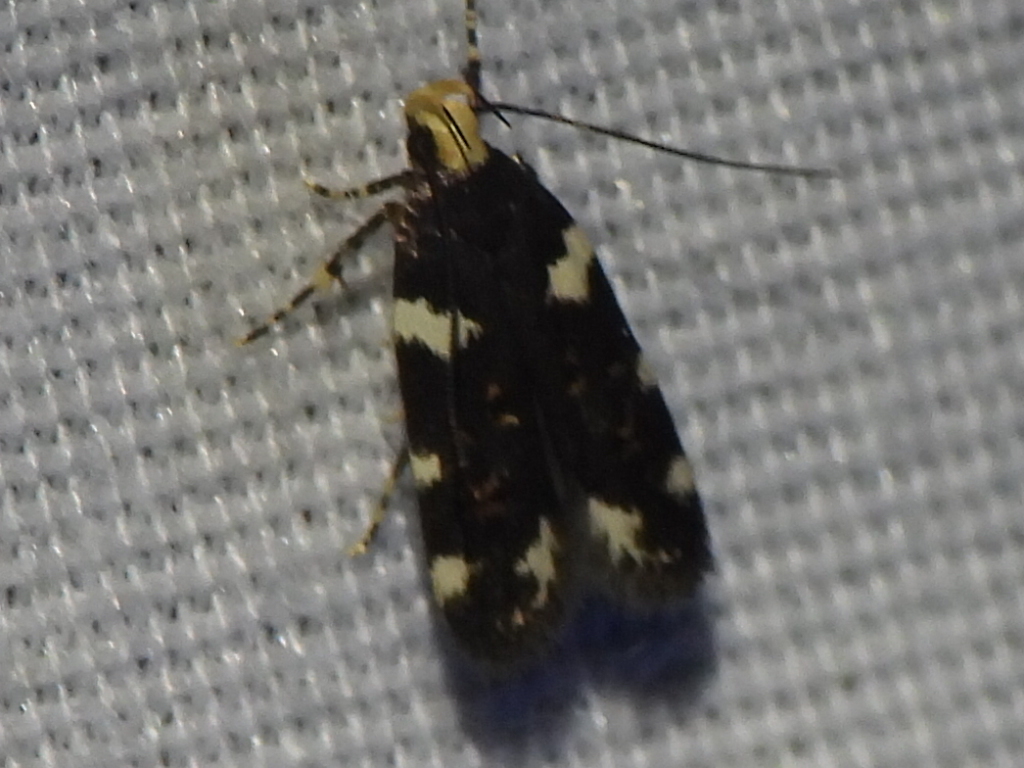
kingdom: Animalia
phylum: Arthropoda
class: Insecta
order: Lepidoptera
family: Gelechiidae
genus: Fascista
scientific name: Fascista cercerisella
